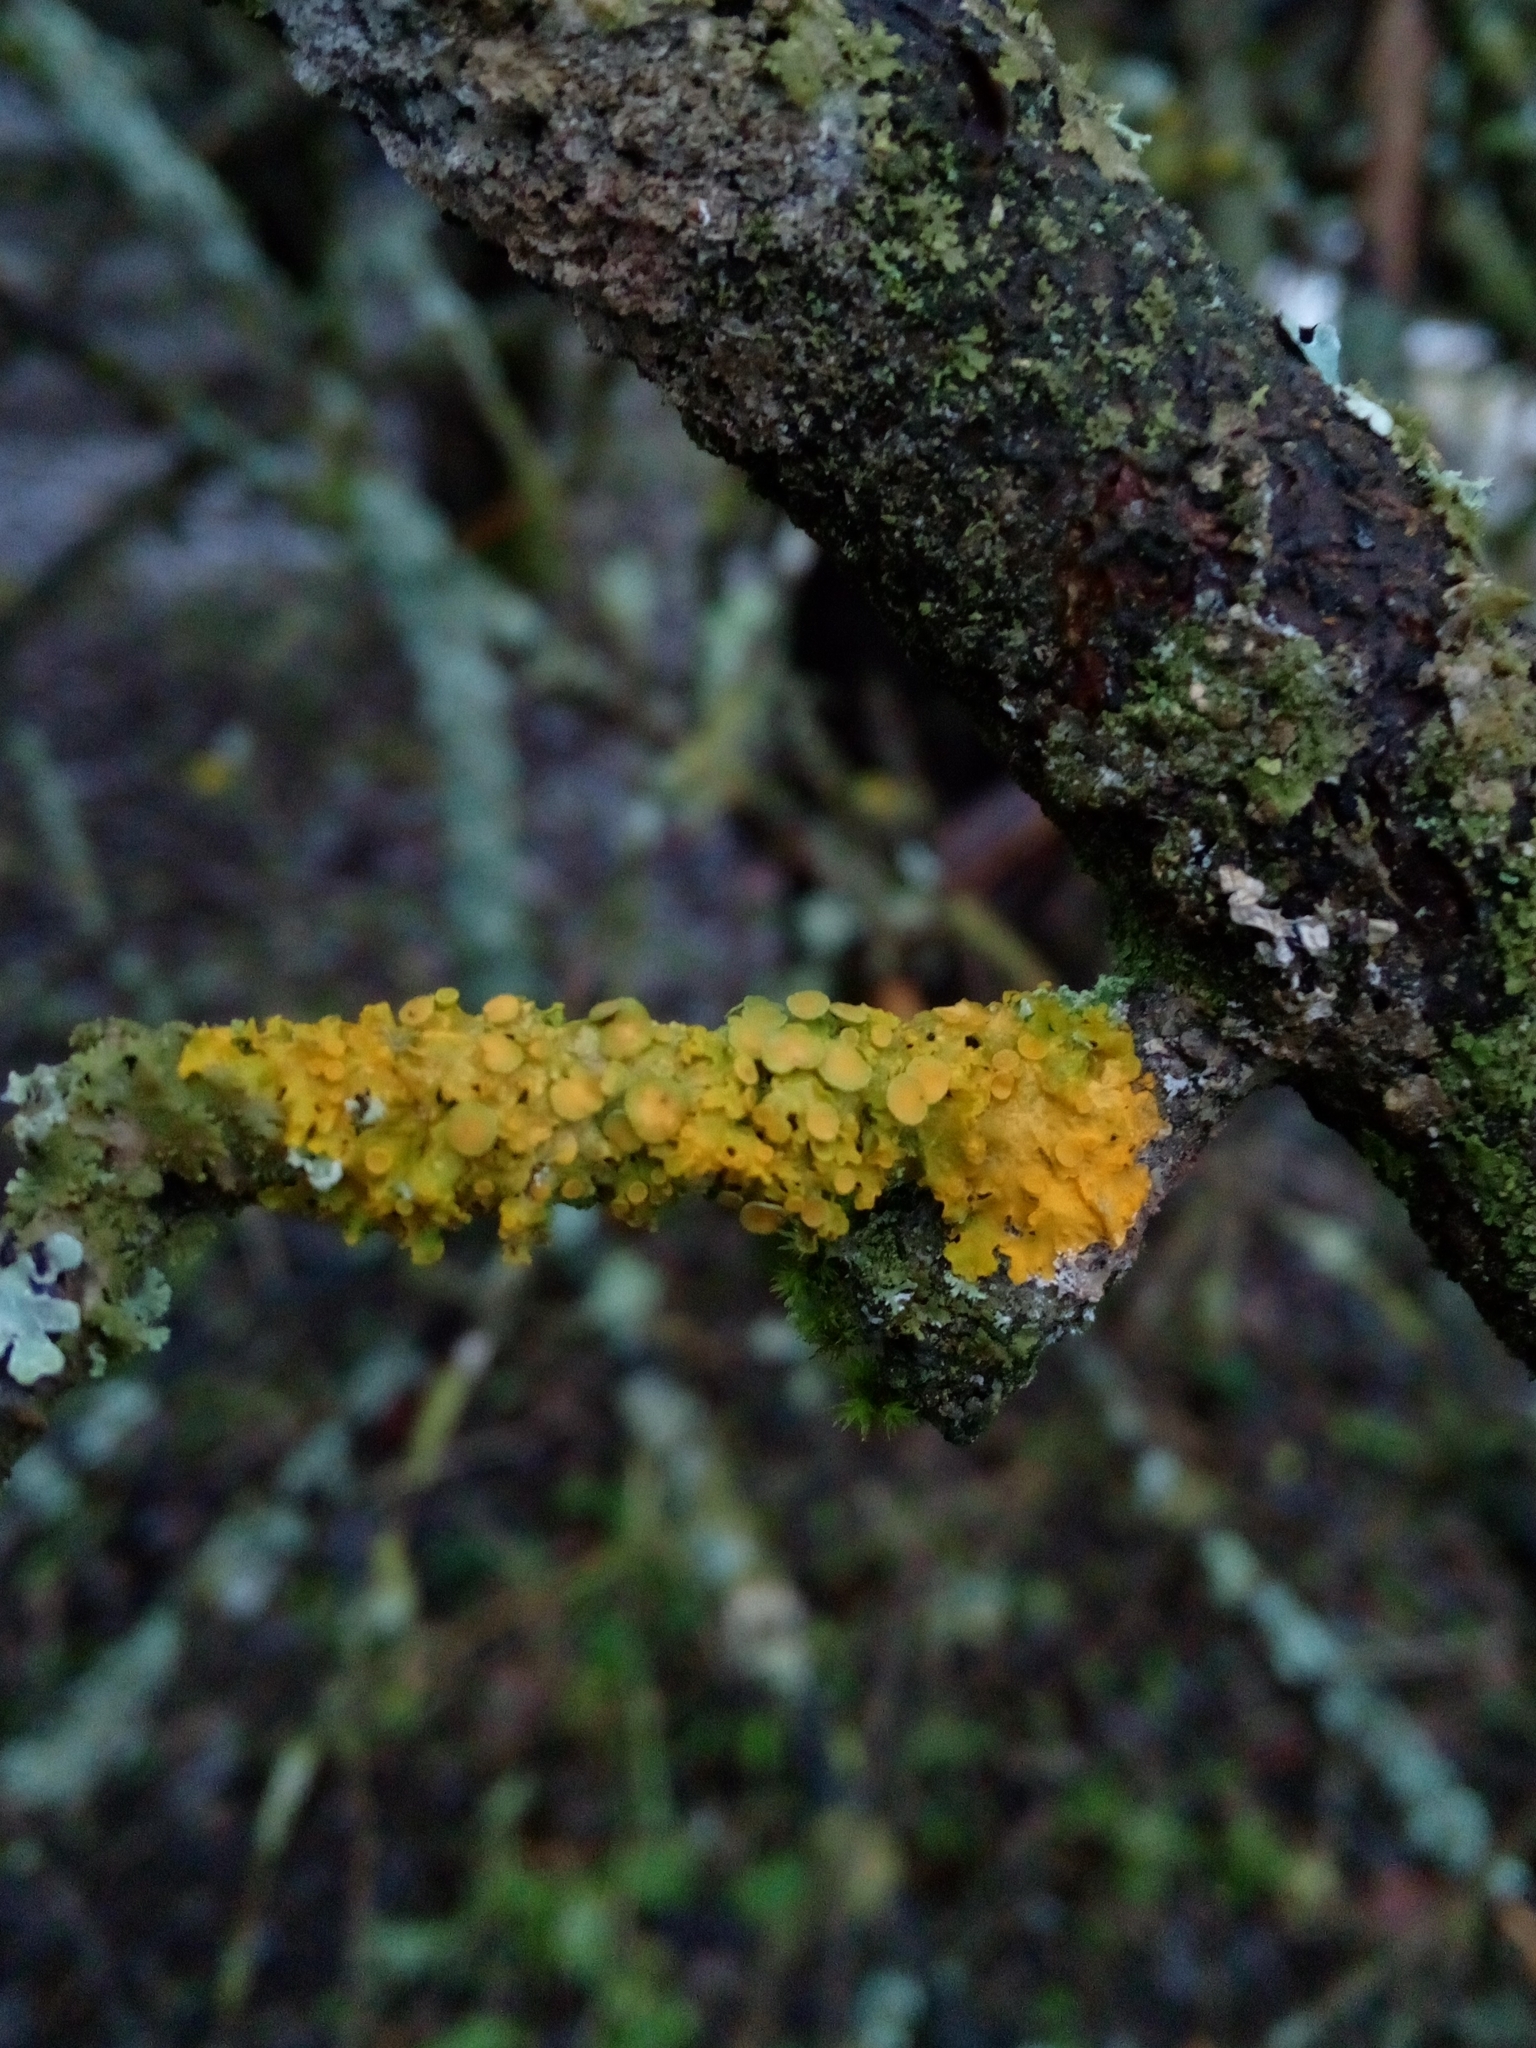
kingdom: Fungi
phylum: Ascomycota
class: Lecanoromycetes
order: Teloschistales
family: Teloschistaceae
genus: Xanthoria
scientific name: Xanthoria parietina
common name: Common orange lichen
